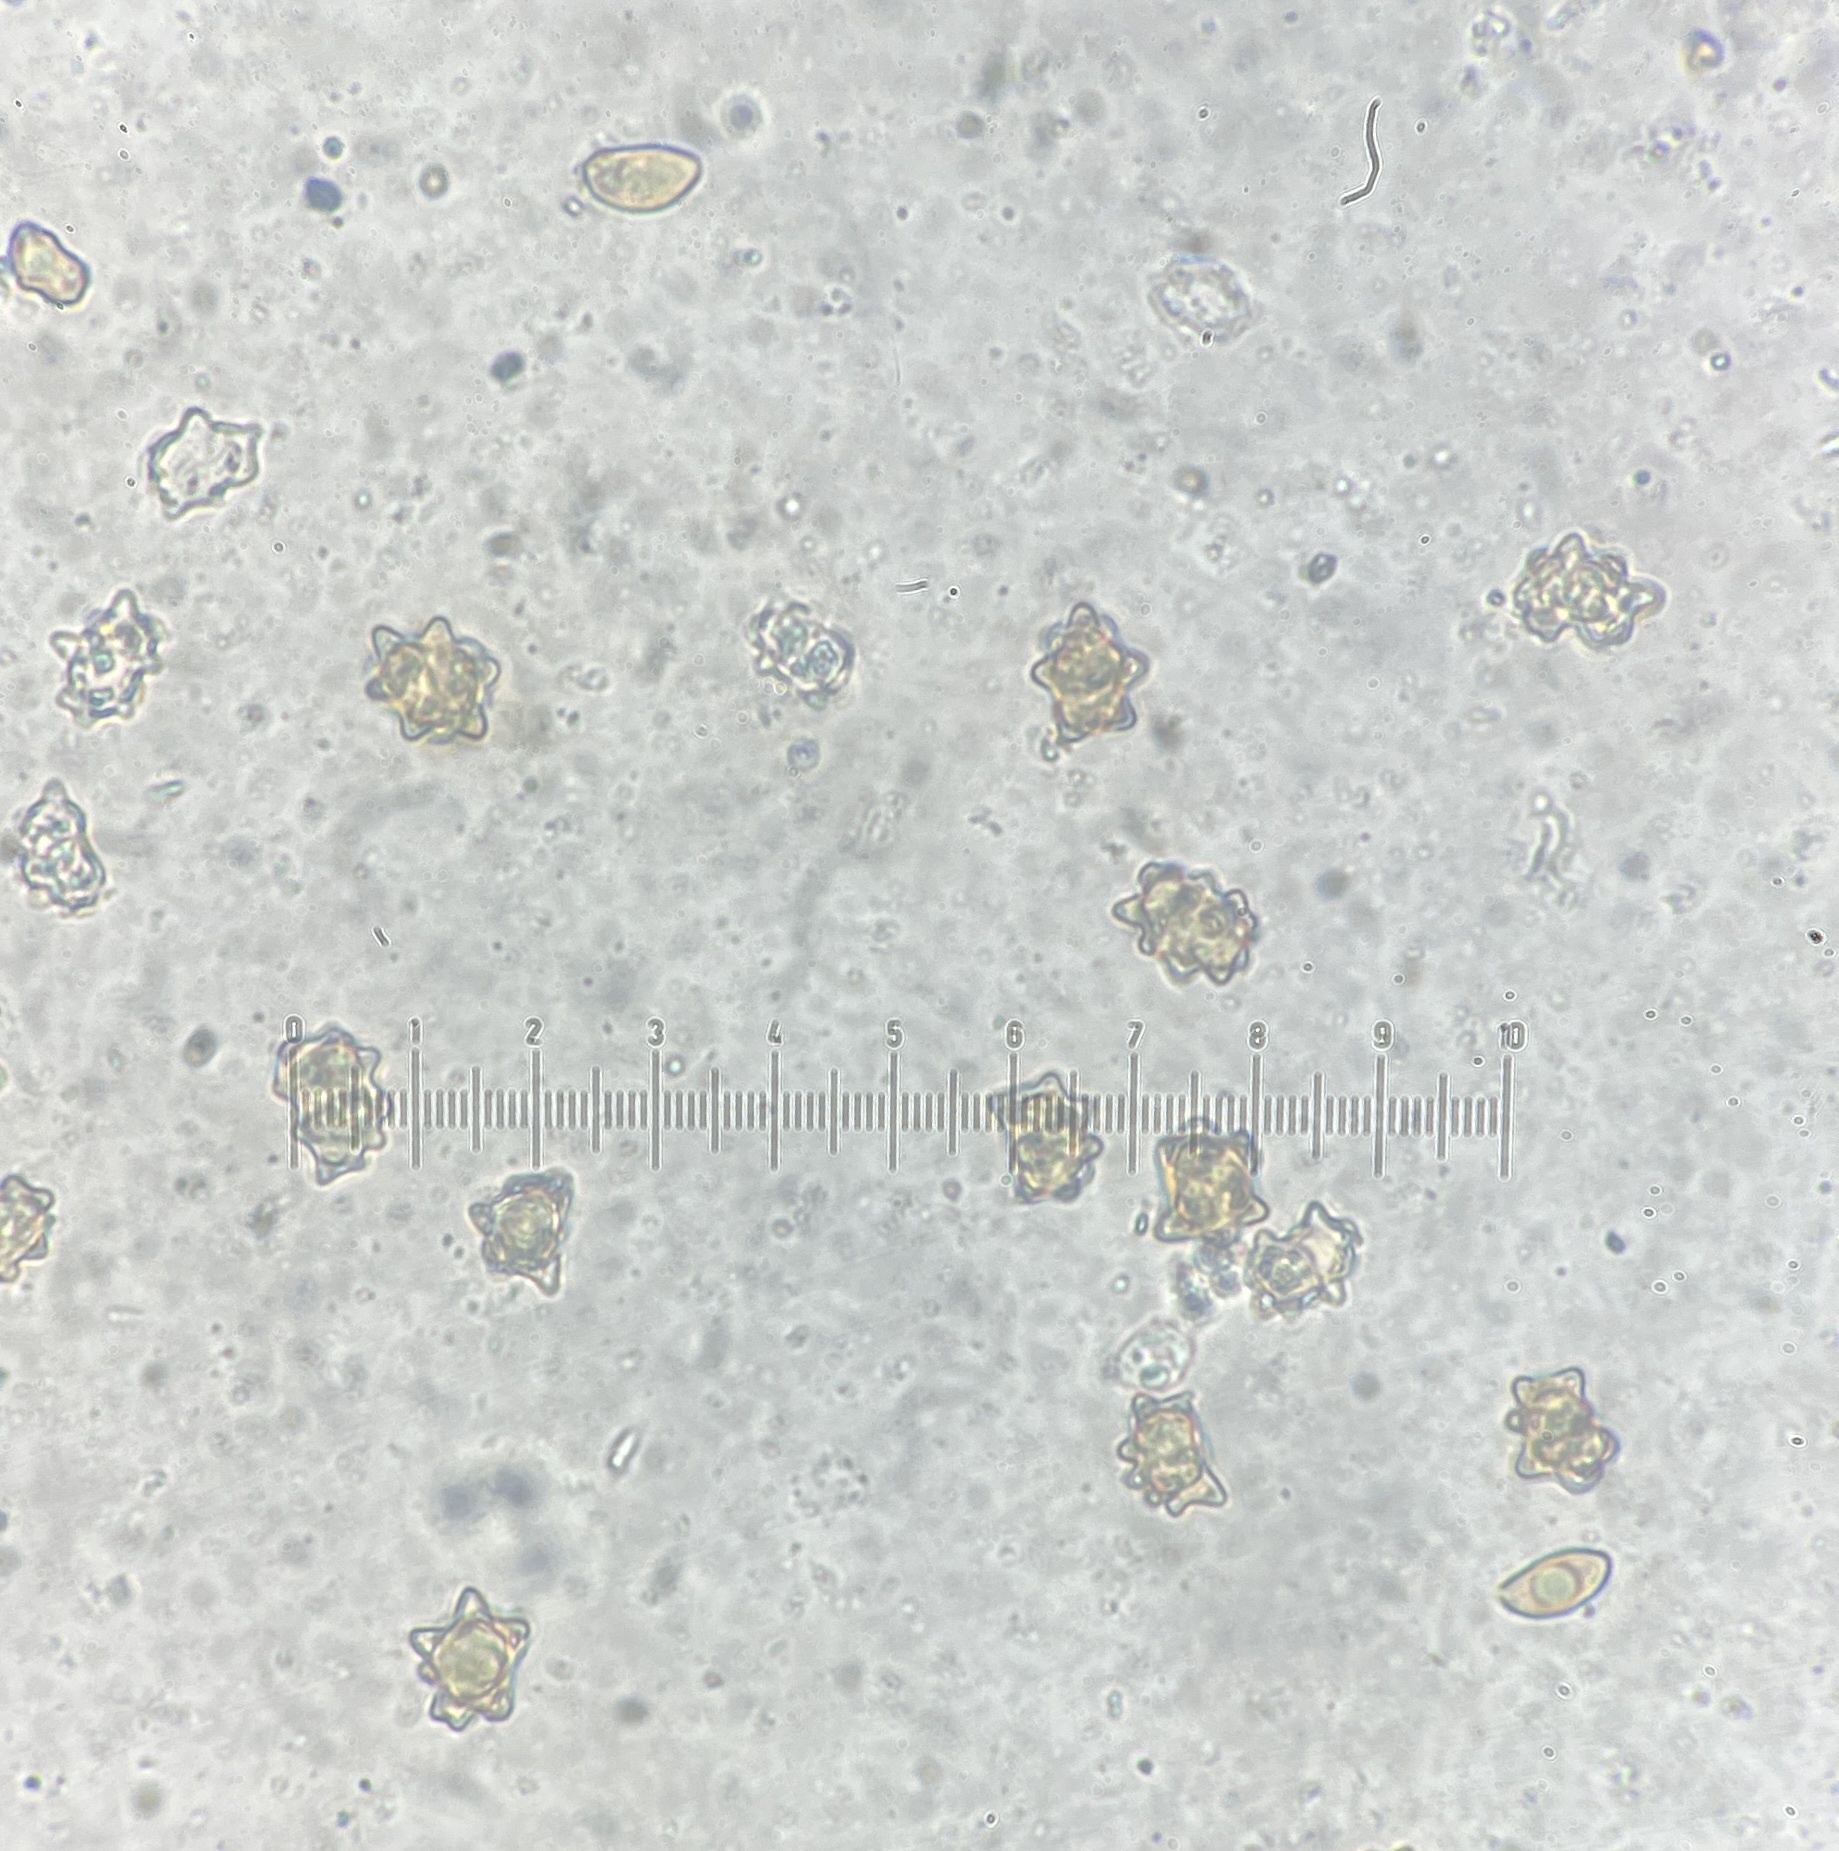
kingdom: Fungi
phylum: Basidiomycota
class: Agaricomycetes
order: Agaricales
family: Inocybaceae
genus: Inocybe
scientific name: Inocybe margaritispora
